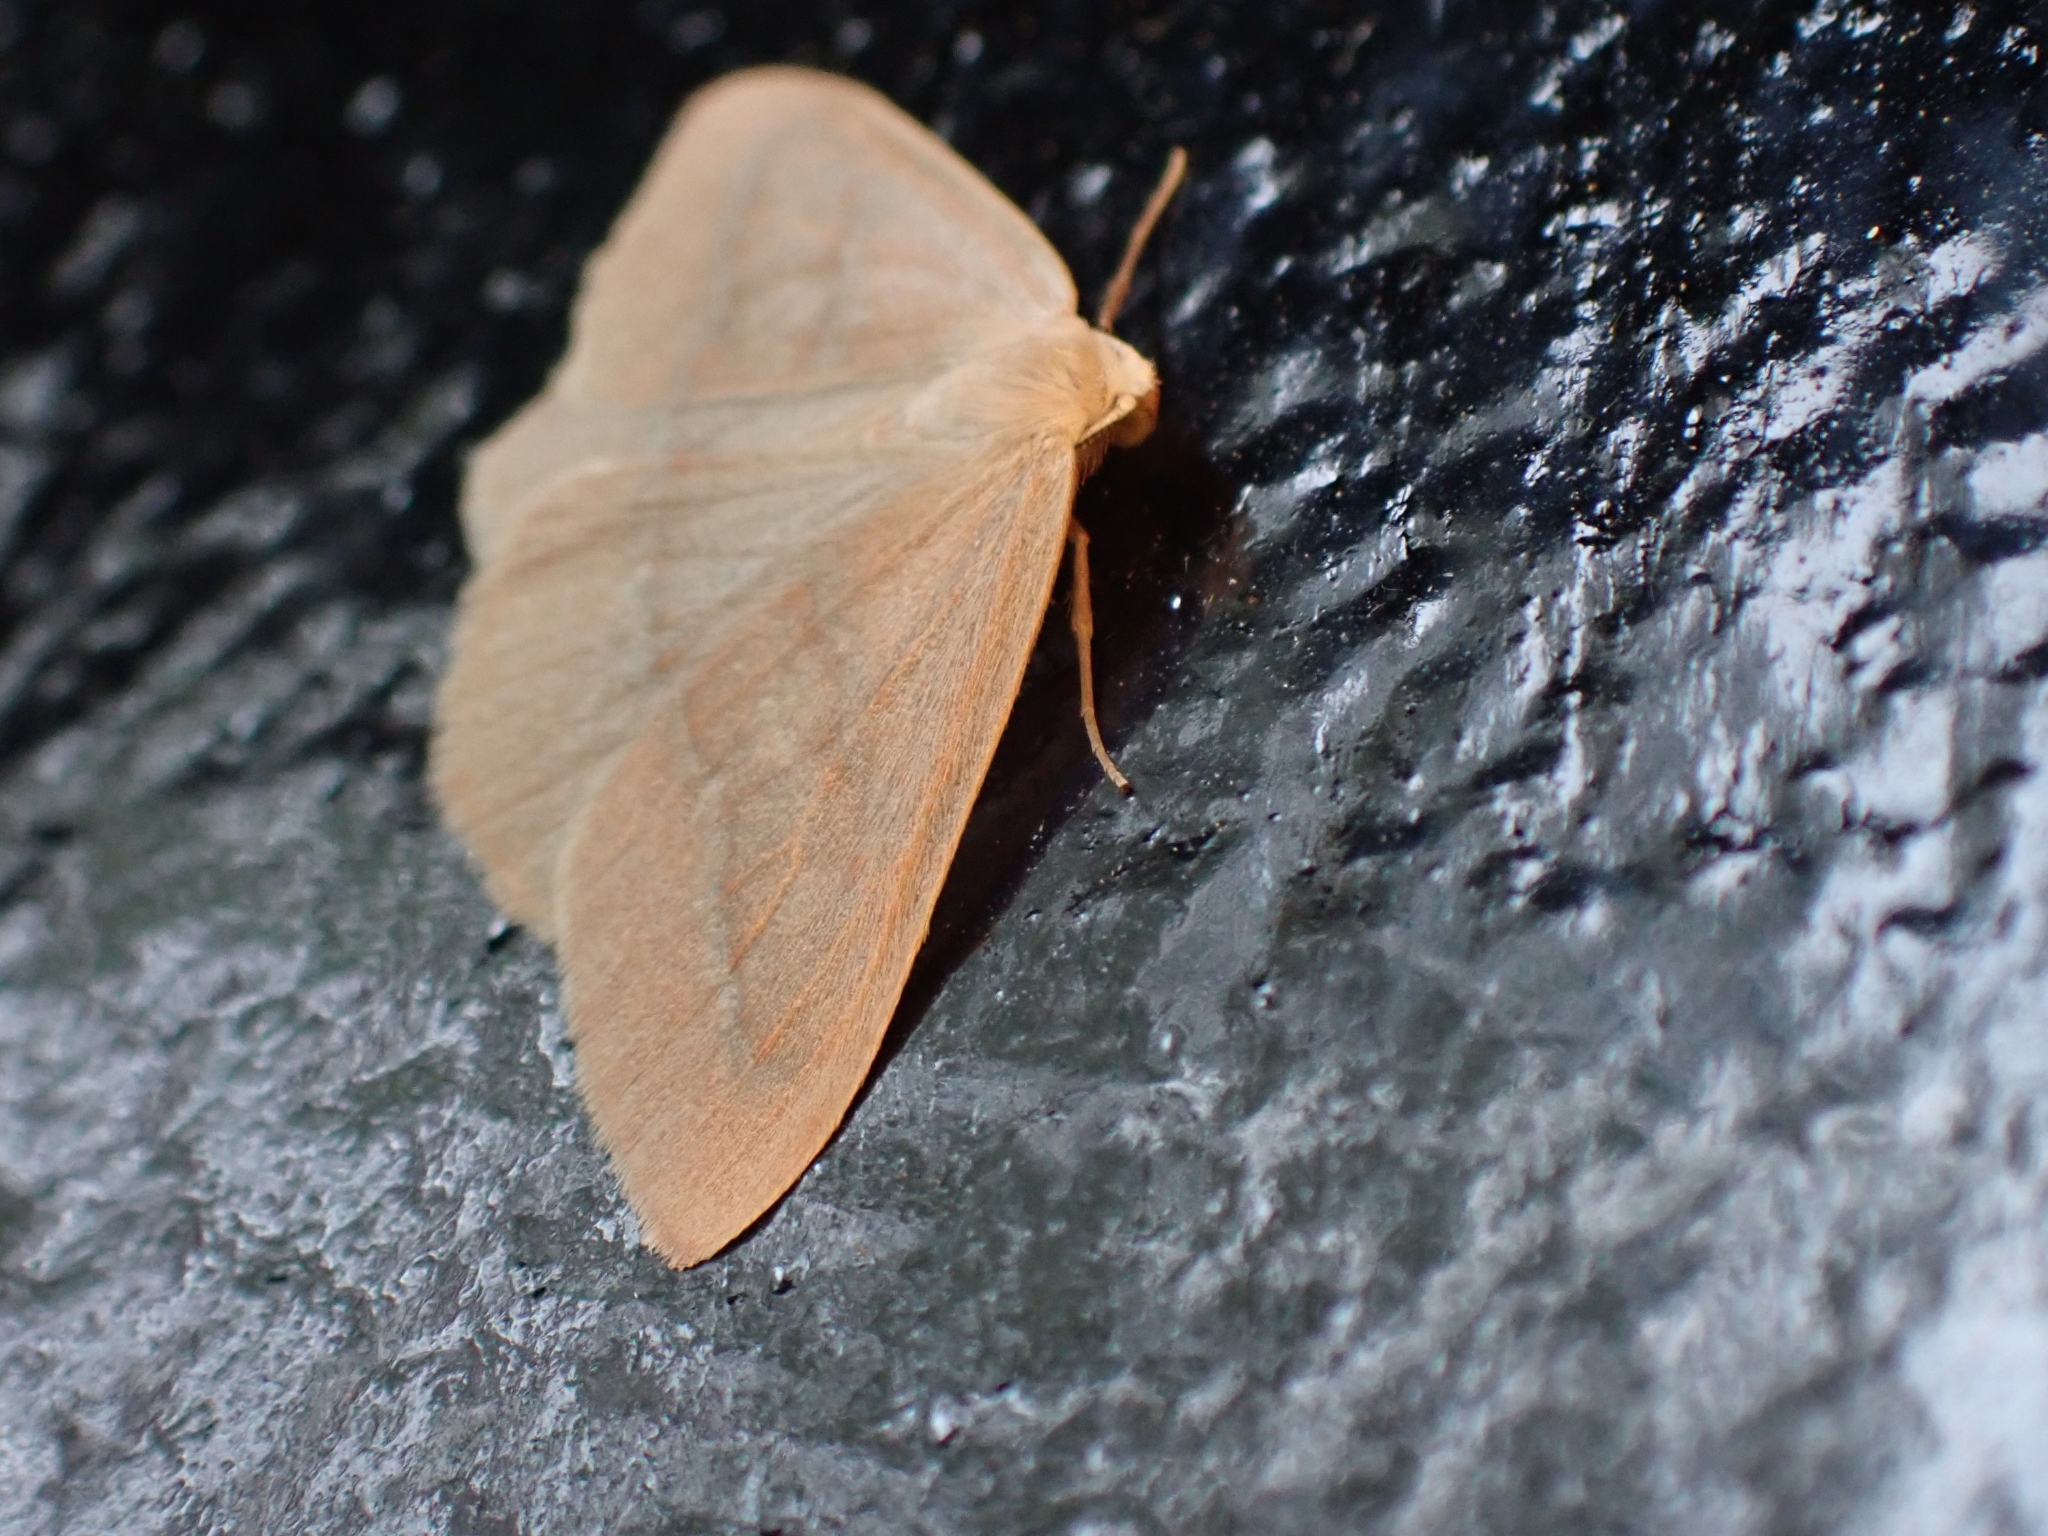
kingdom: Animalia
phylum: Arthropoda
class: Insecta
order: Lepidoptera
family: Geometridae
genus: Hylaea
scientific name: Hylaea fasciaria
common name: Barred red
